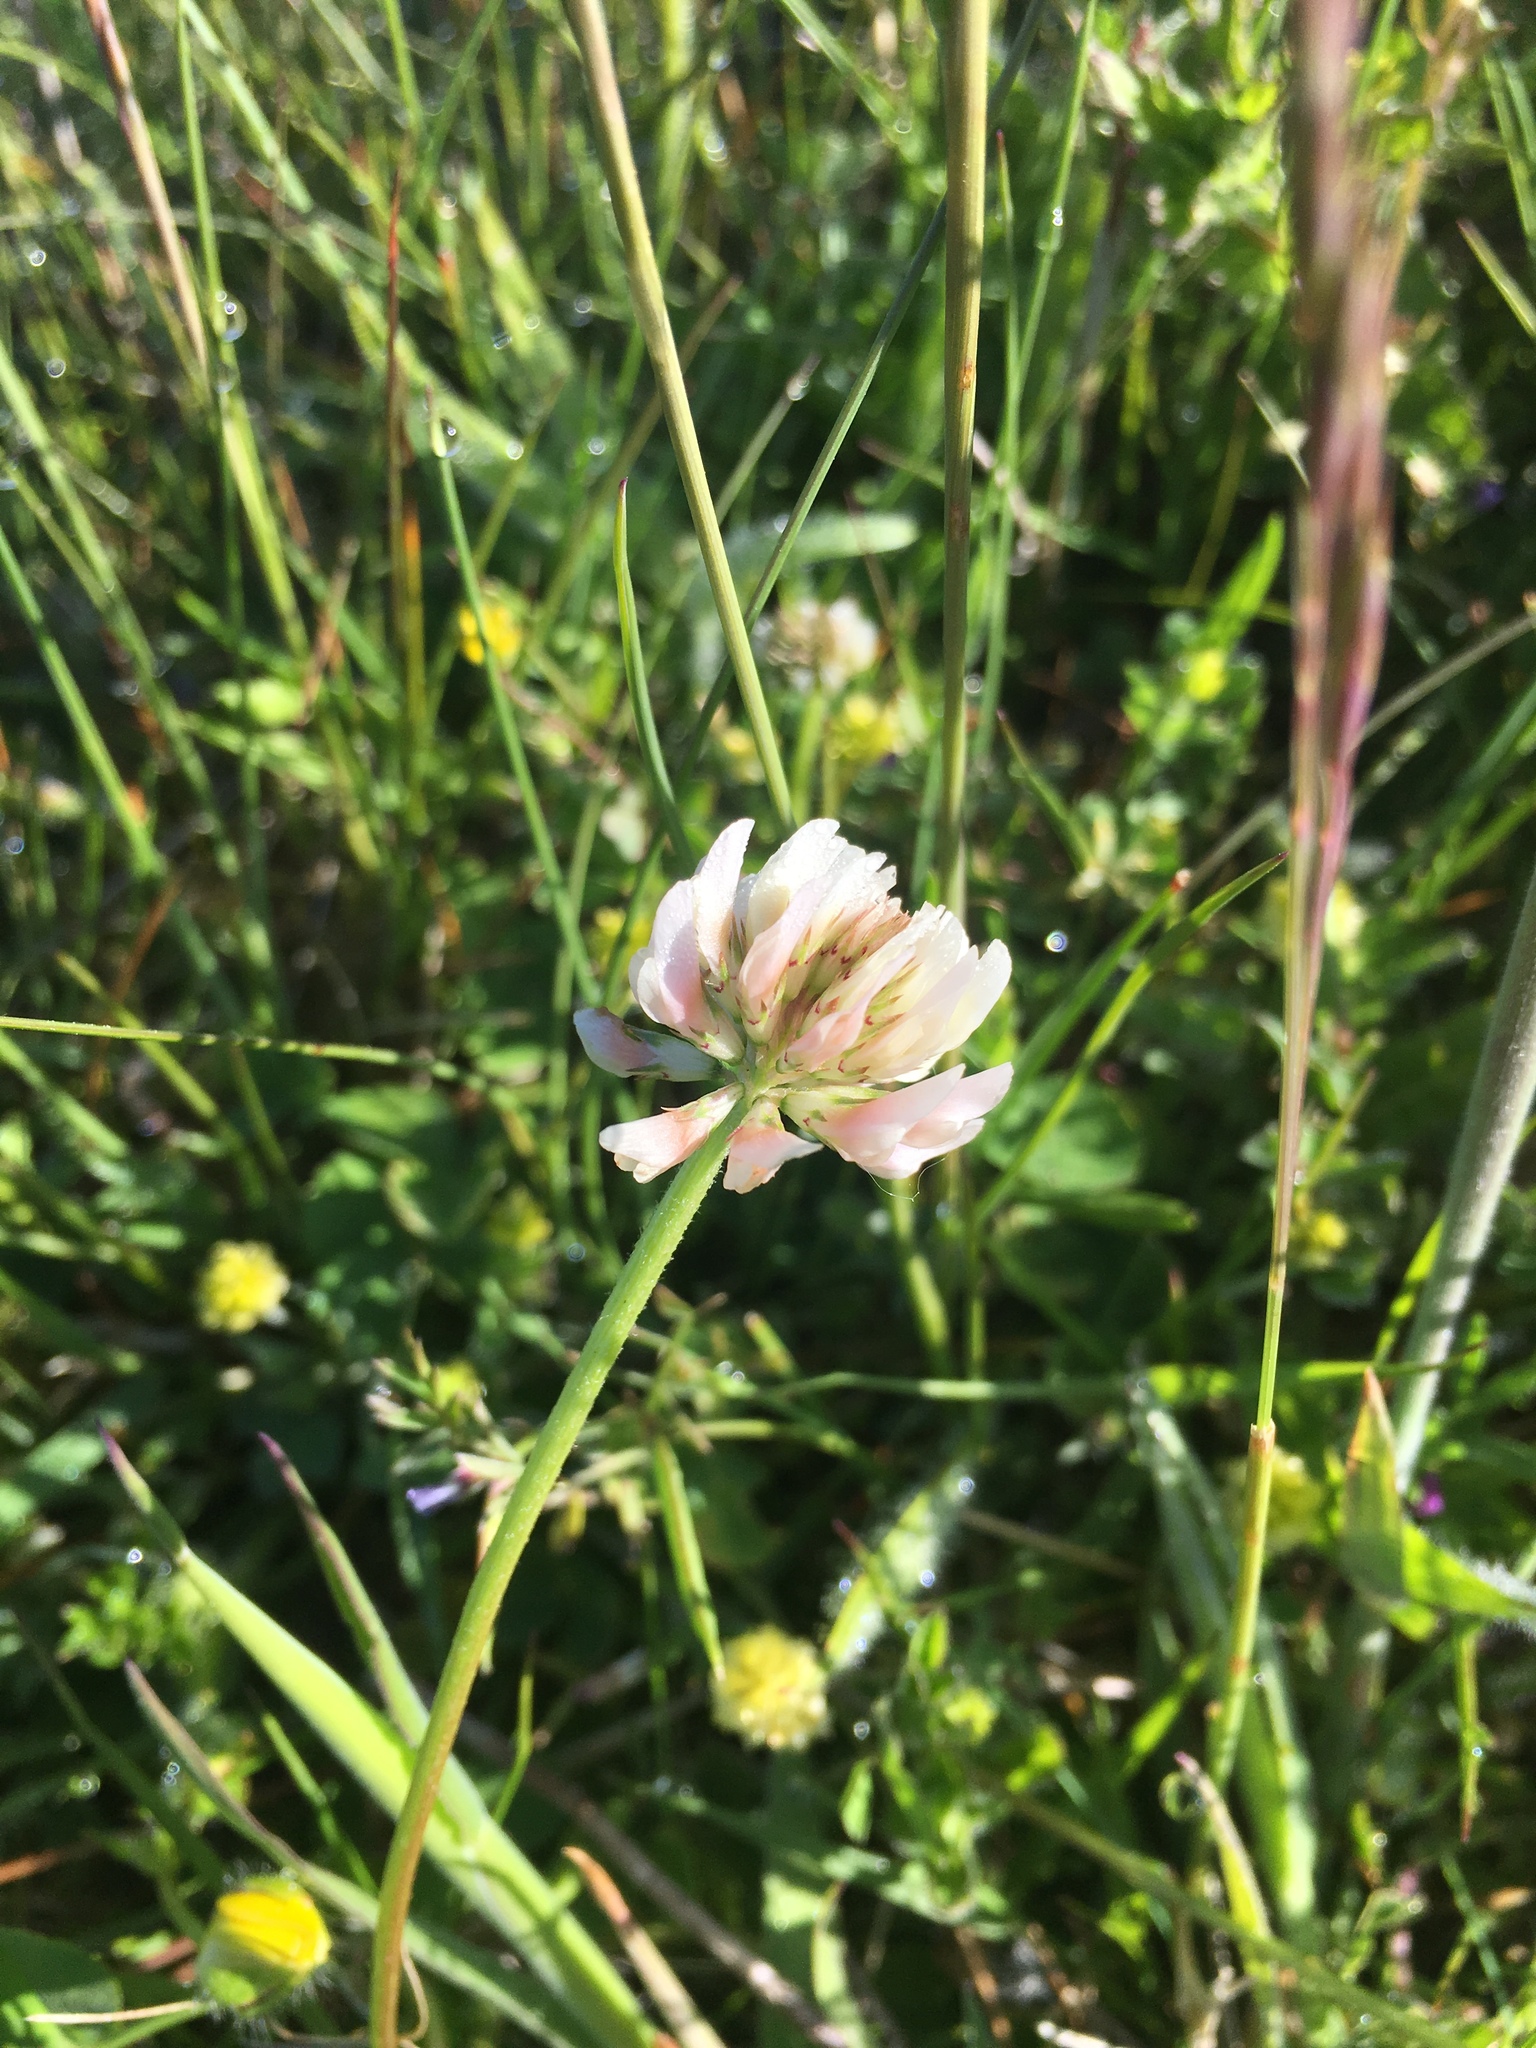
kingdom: Plantae
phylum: Tracheophyta
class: Magnoliopsida
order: Fabales
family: Fabaceae
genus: Trifolium
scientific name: Trifolium repens
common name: White clover
